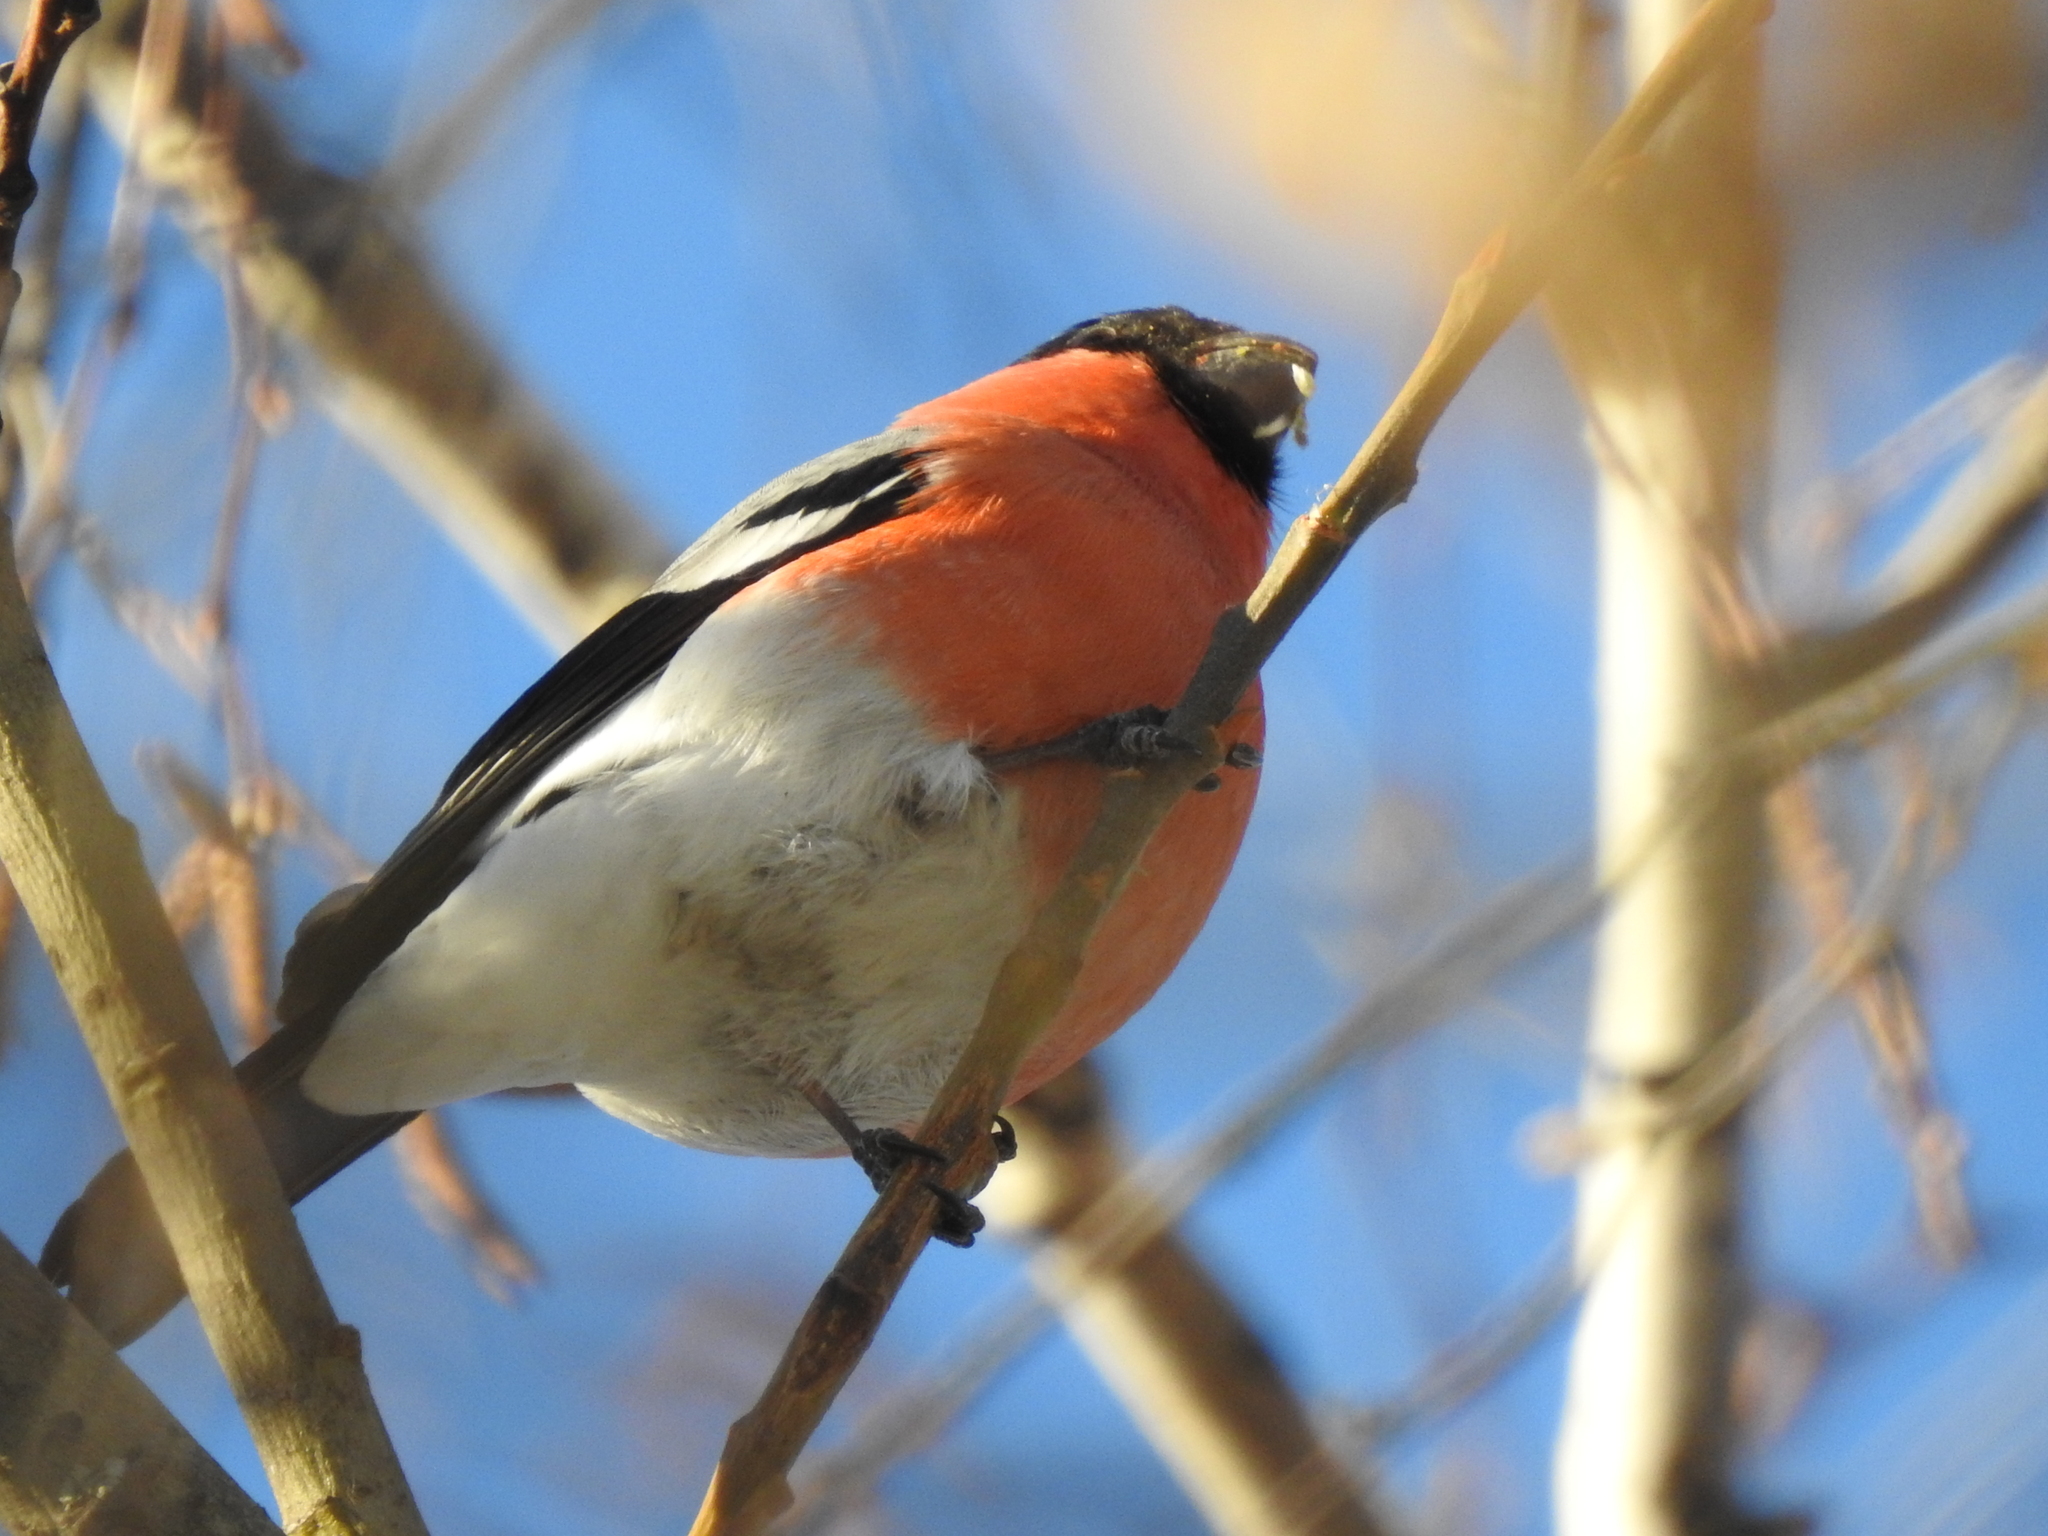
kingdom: Animalia
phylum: Chordata
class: Aves
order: Passeriformes
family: Fringillidae
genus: Pyrrhula
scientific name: Pyrrhula pyrrhula
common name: Eurasian bullfinch
